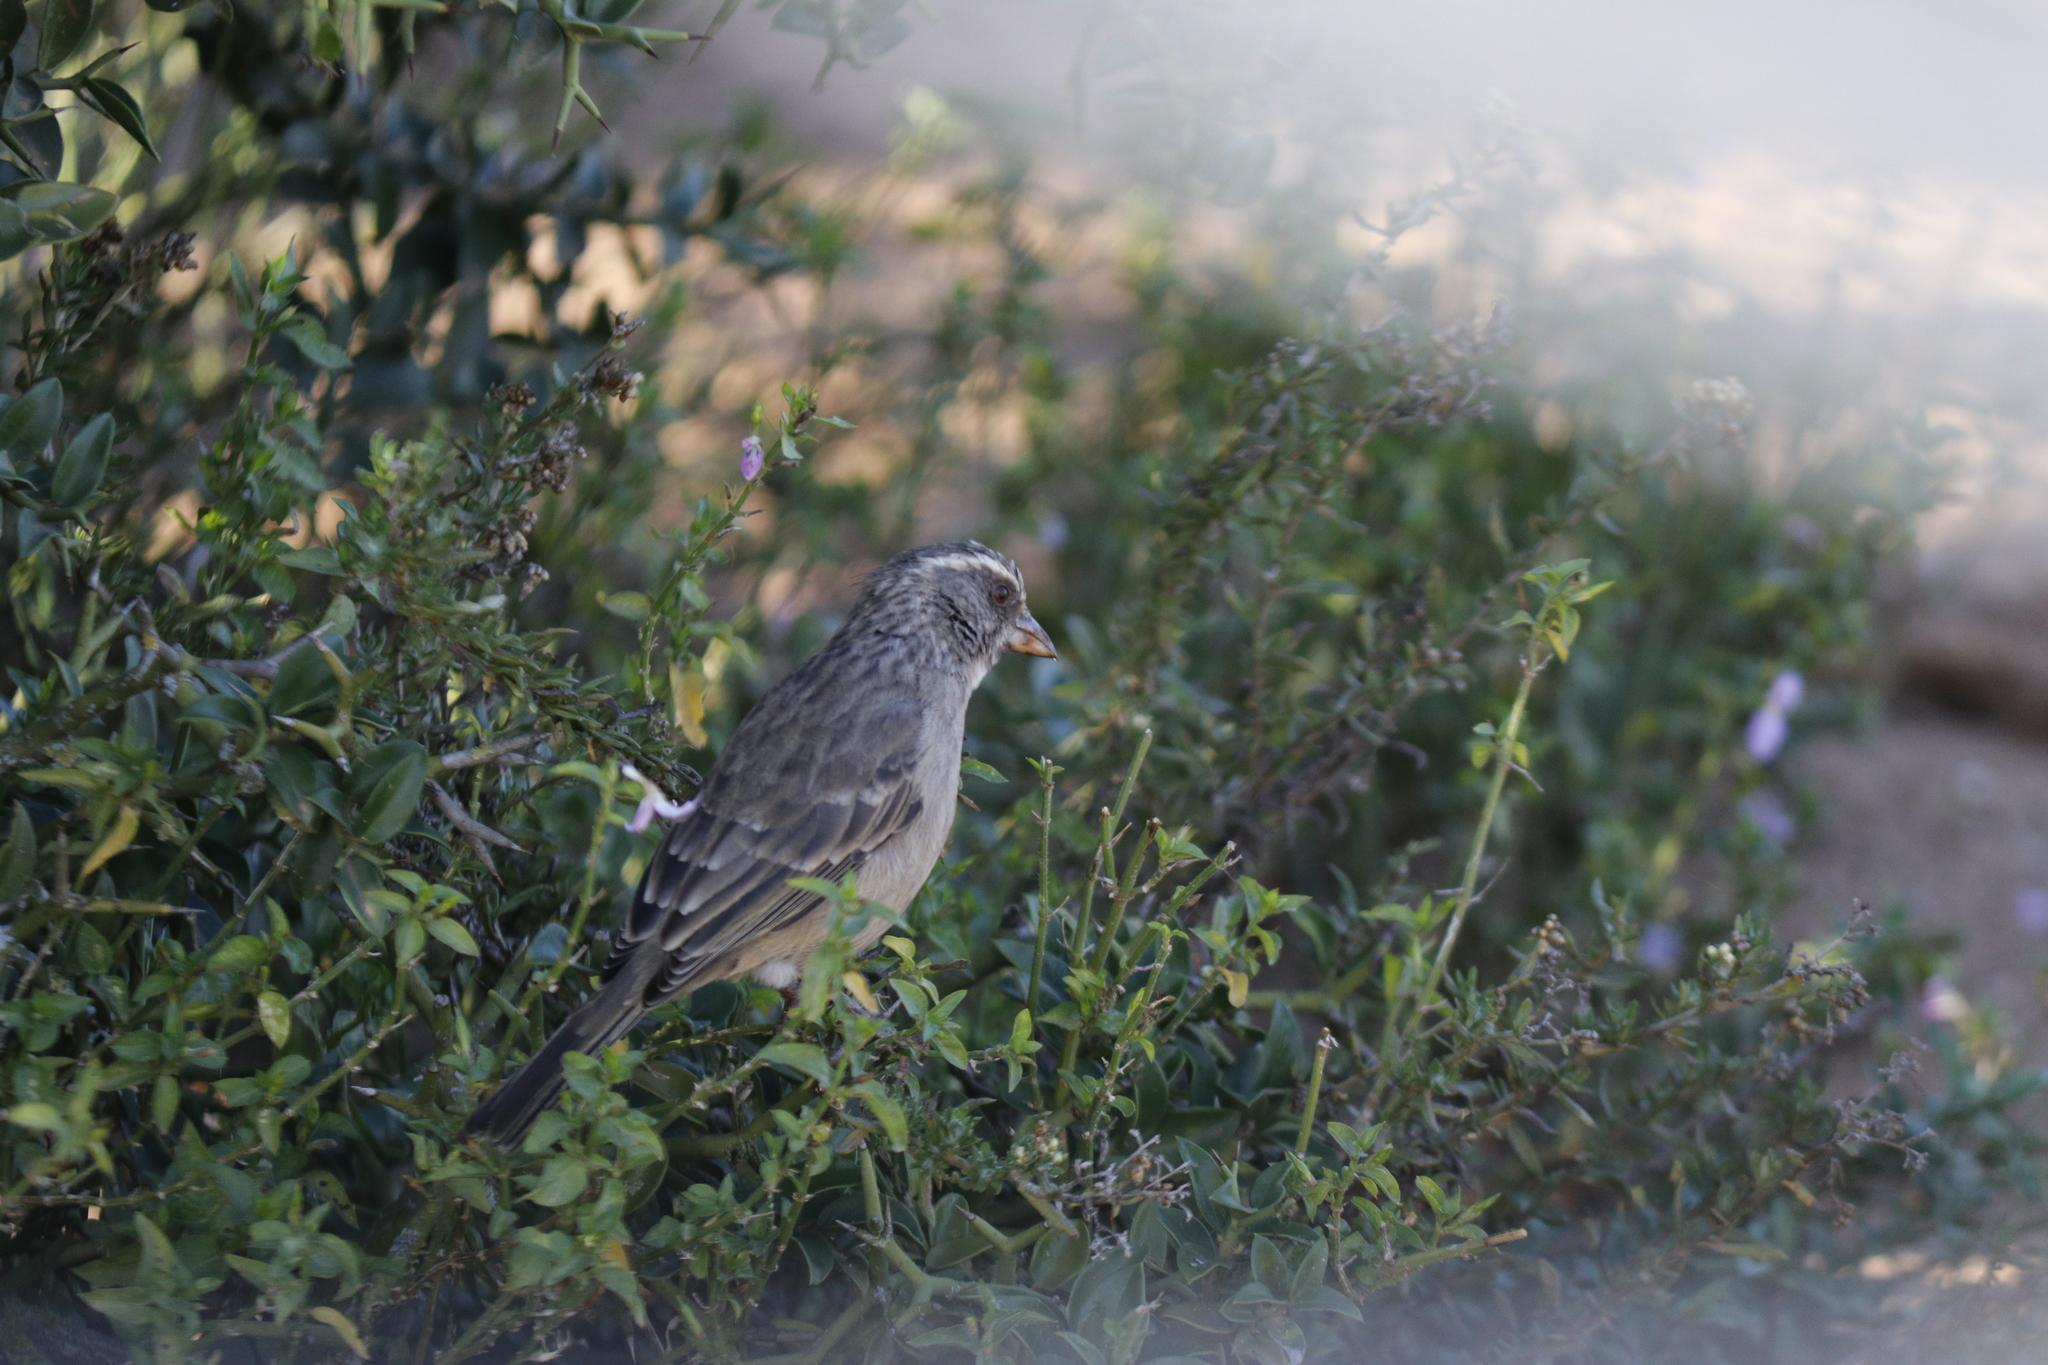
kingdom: Animalia
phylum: Chordata
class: Aves
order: Passeriformes
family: Fringillidae
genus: Crithagra
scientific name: Crithagra gularis
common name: Streaky-headed seedeater
